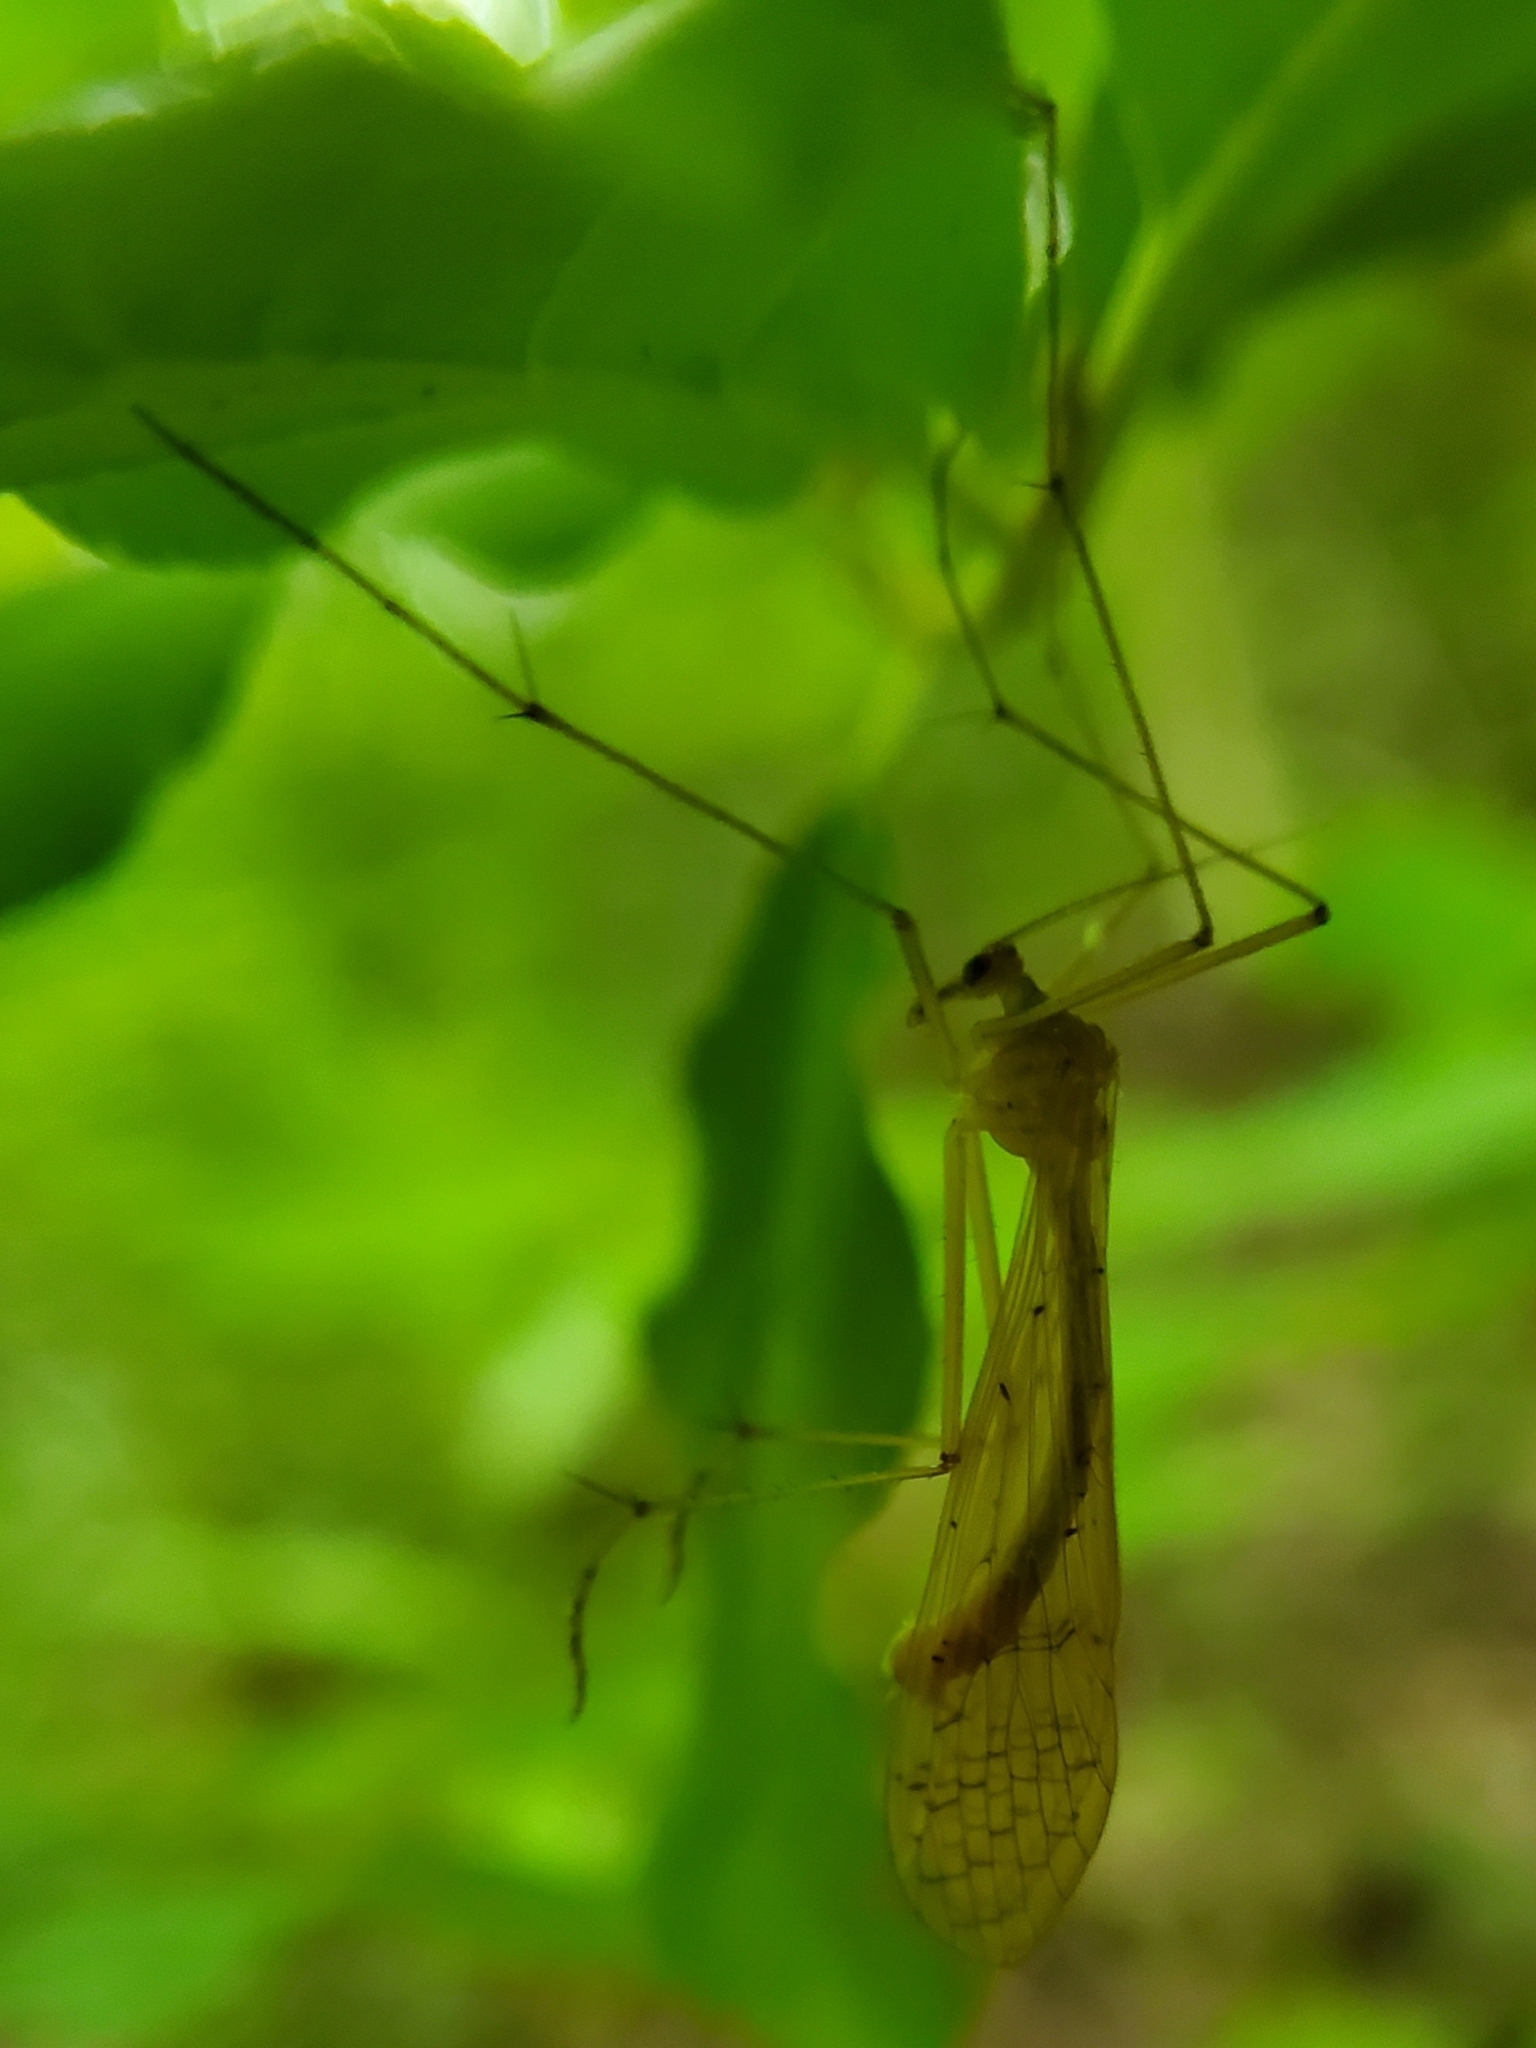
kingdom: Animalia
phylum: Arthropoda
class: Insecta
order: Mecoptera
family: Bittacidae
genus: Bittacus
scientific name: Bittacus strigosus
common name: Thin hangingfly
